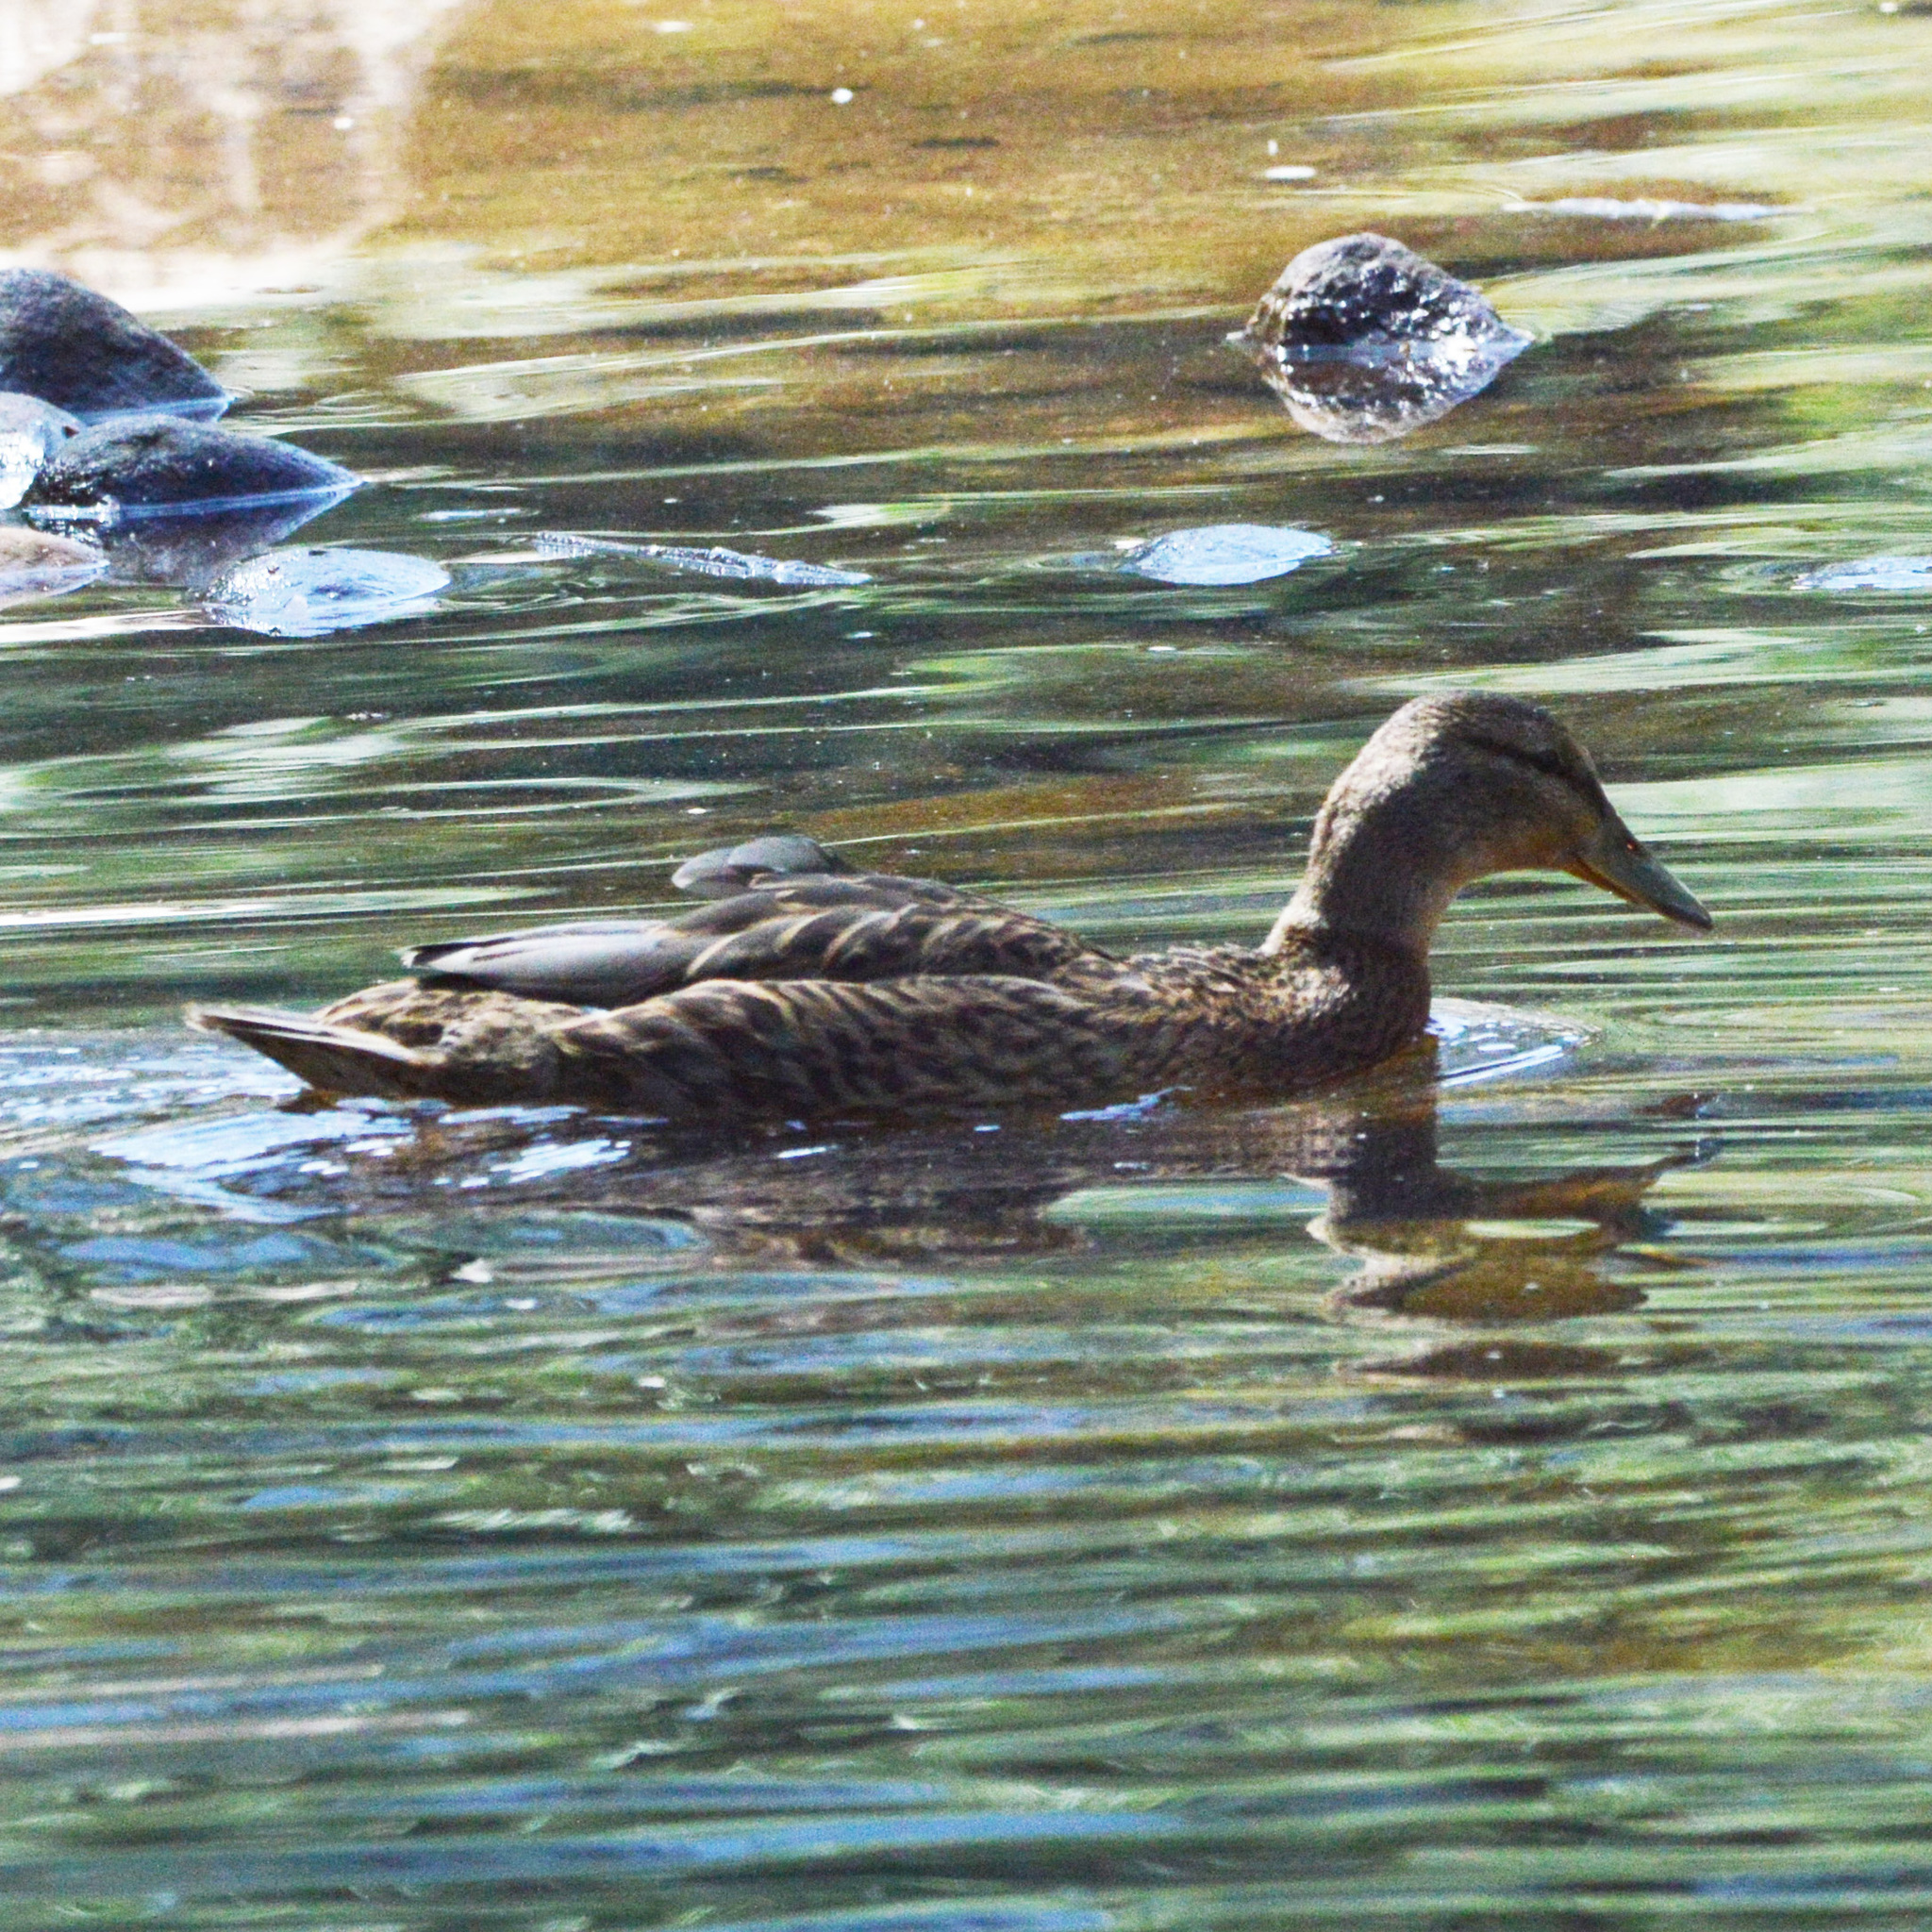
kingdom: Animalia
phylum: Chordata
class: Aves
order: Anseriformes
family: Anatidae
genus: Anas
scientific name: Anas platyrhynchos
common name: Mallard
